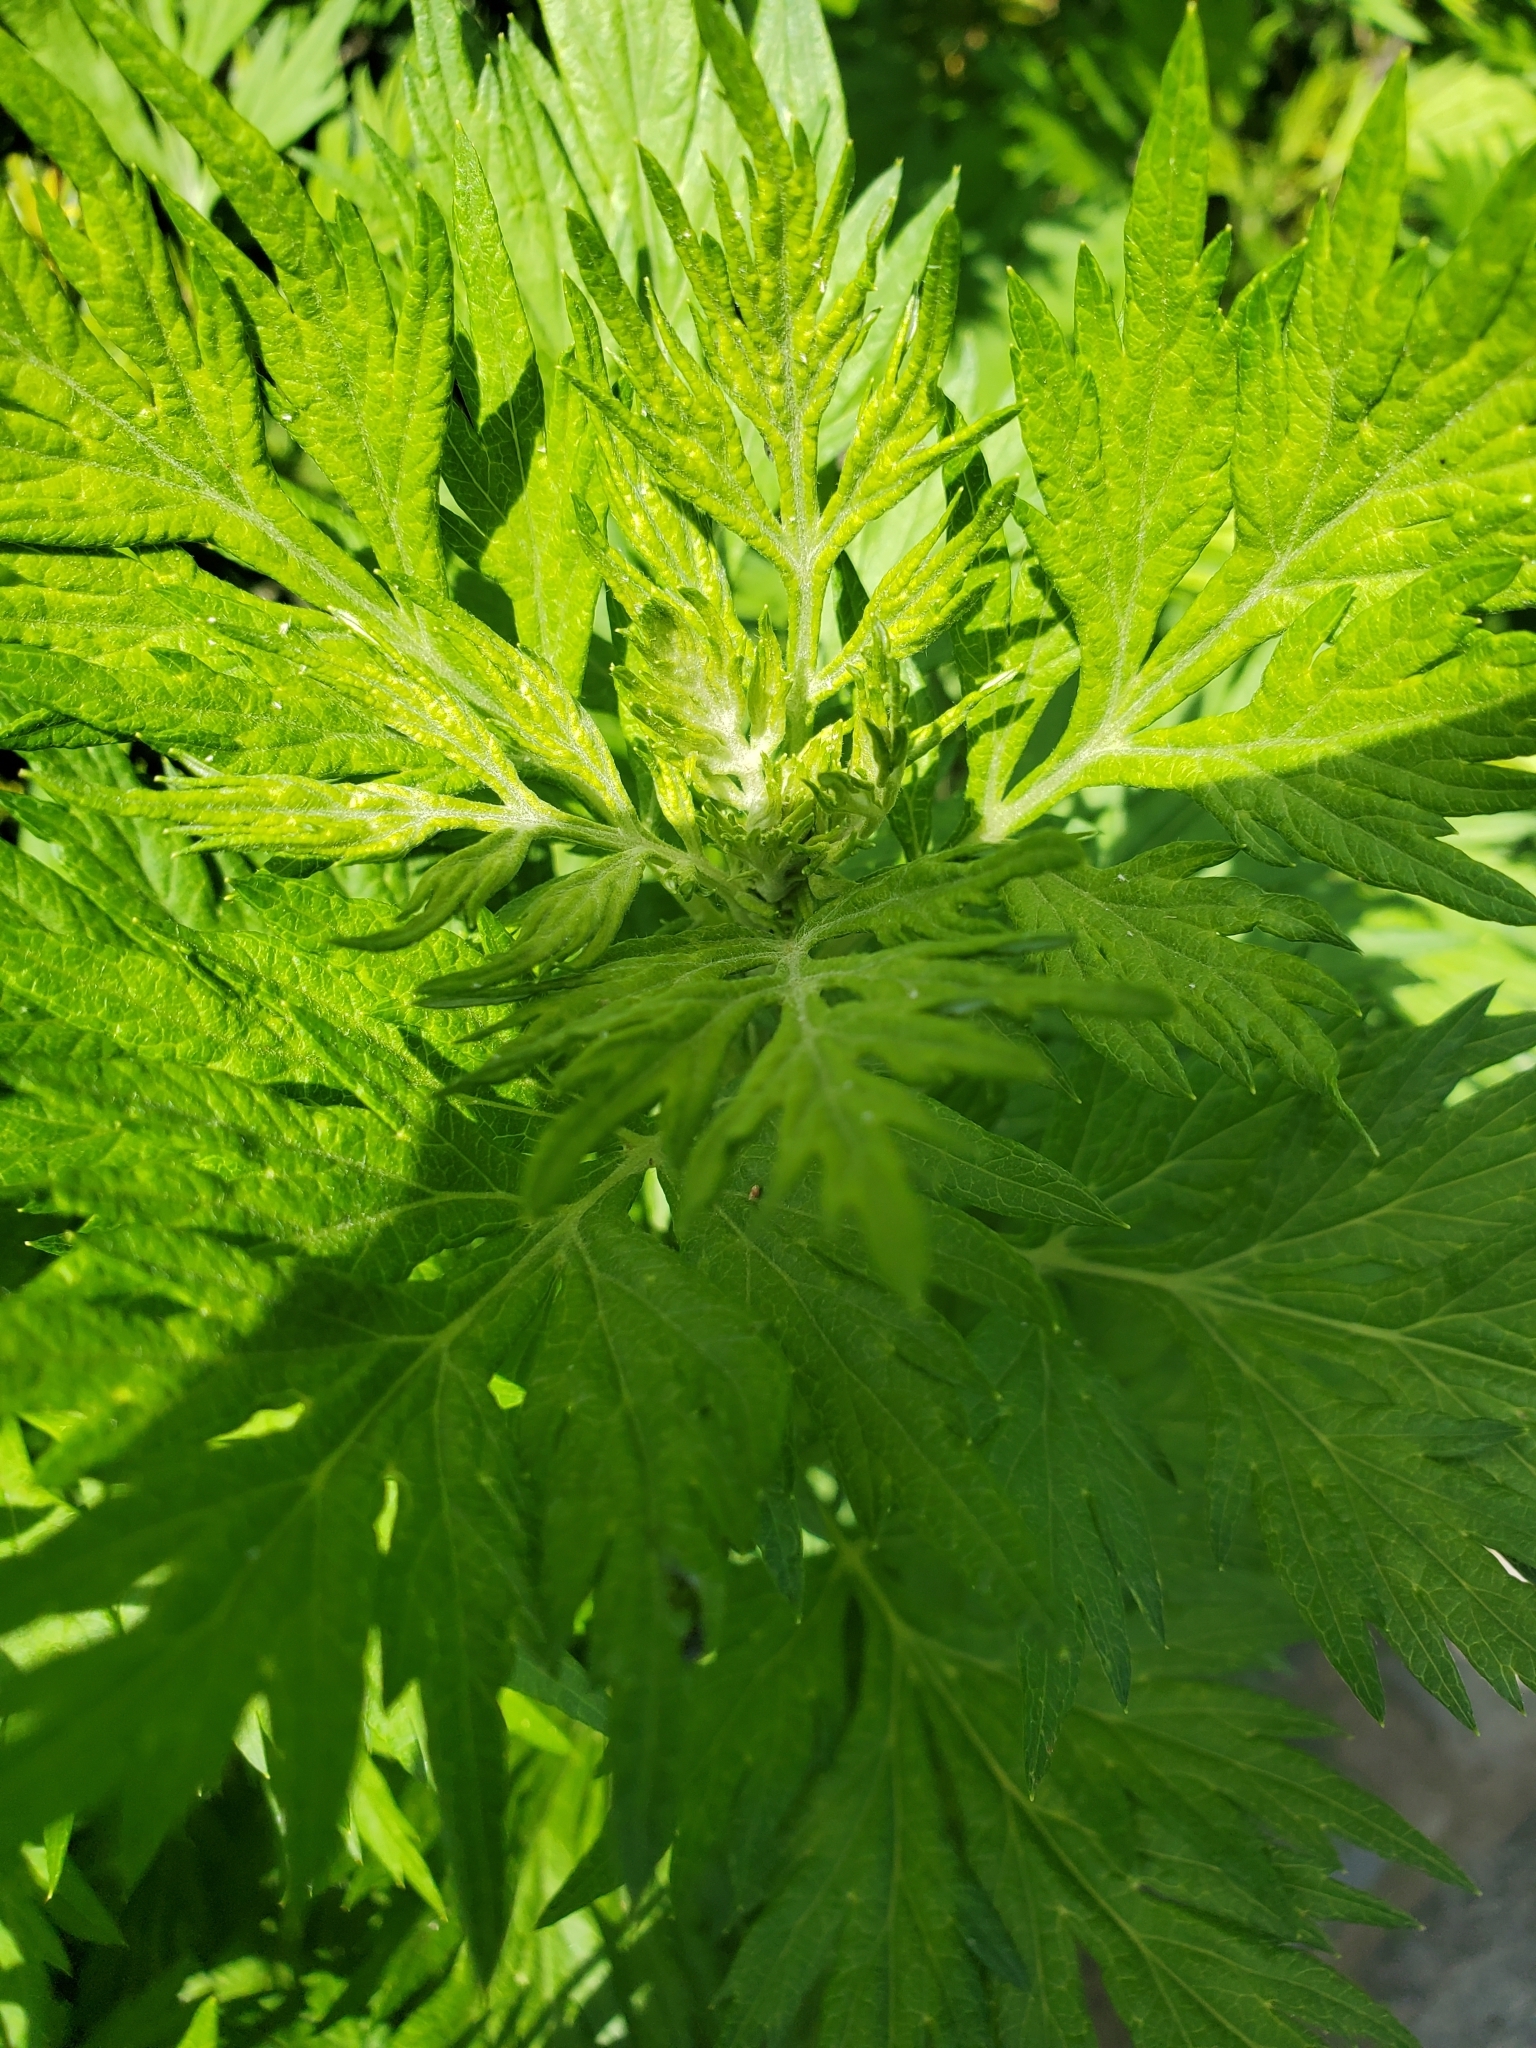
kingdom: Plantae
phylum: Tracheophyta
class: Magnoliopsida
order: Asterales
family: Asteraceae
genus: Artemisia
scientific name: Artemisia vulgaris
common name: Mugwort
